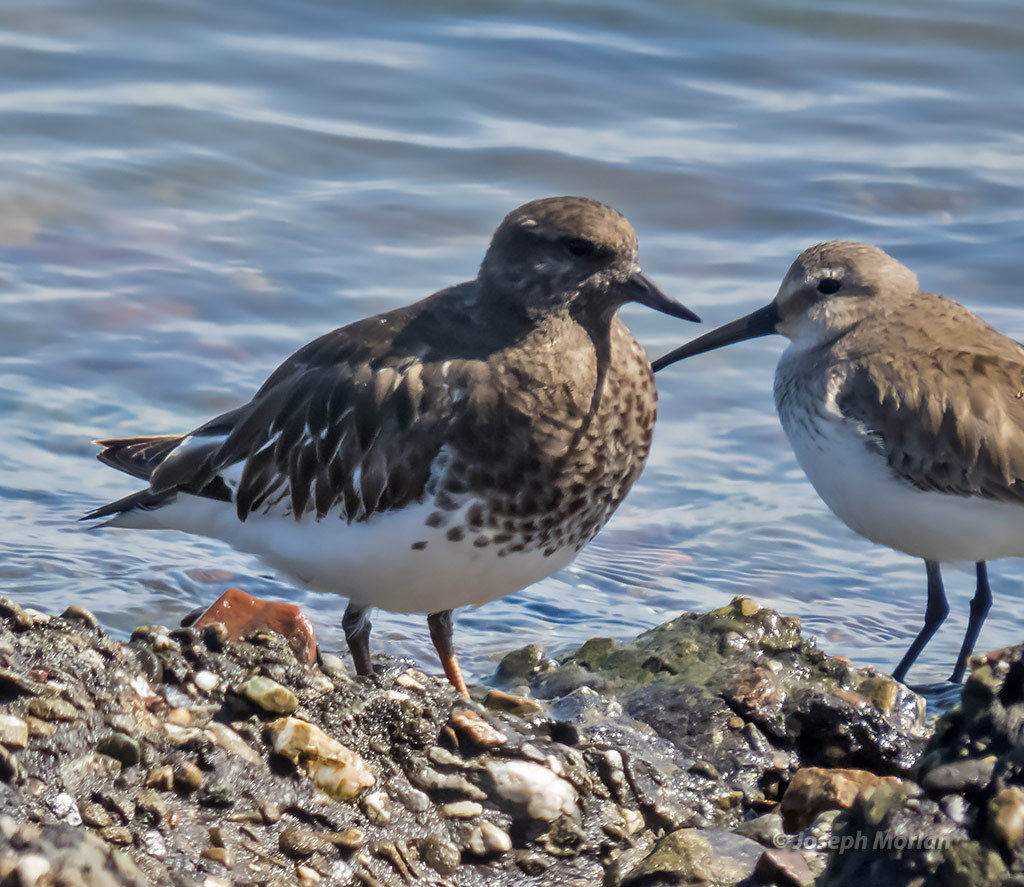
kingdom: Animalia
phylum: Chordata
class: Aves
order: Charadriiformes
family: Scolopacidae
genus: Arenaria
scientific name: Arenaria melanocephala
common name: Black turnstone
